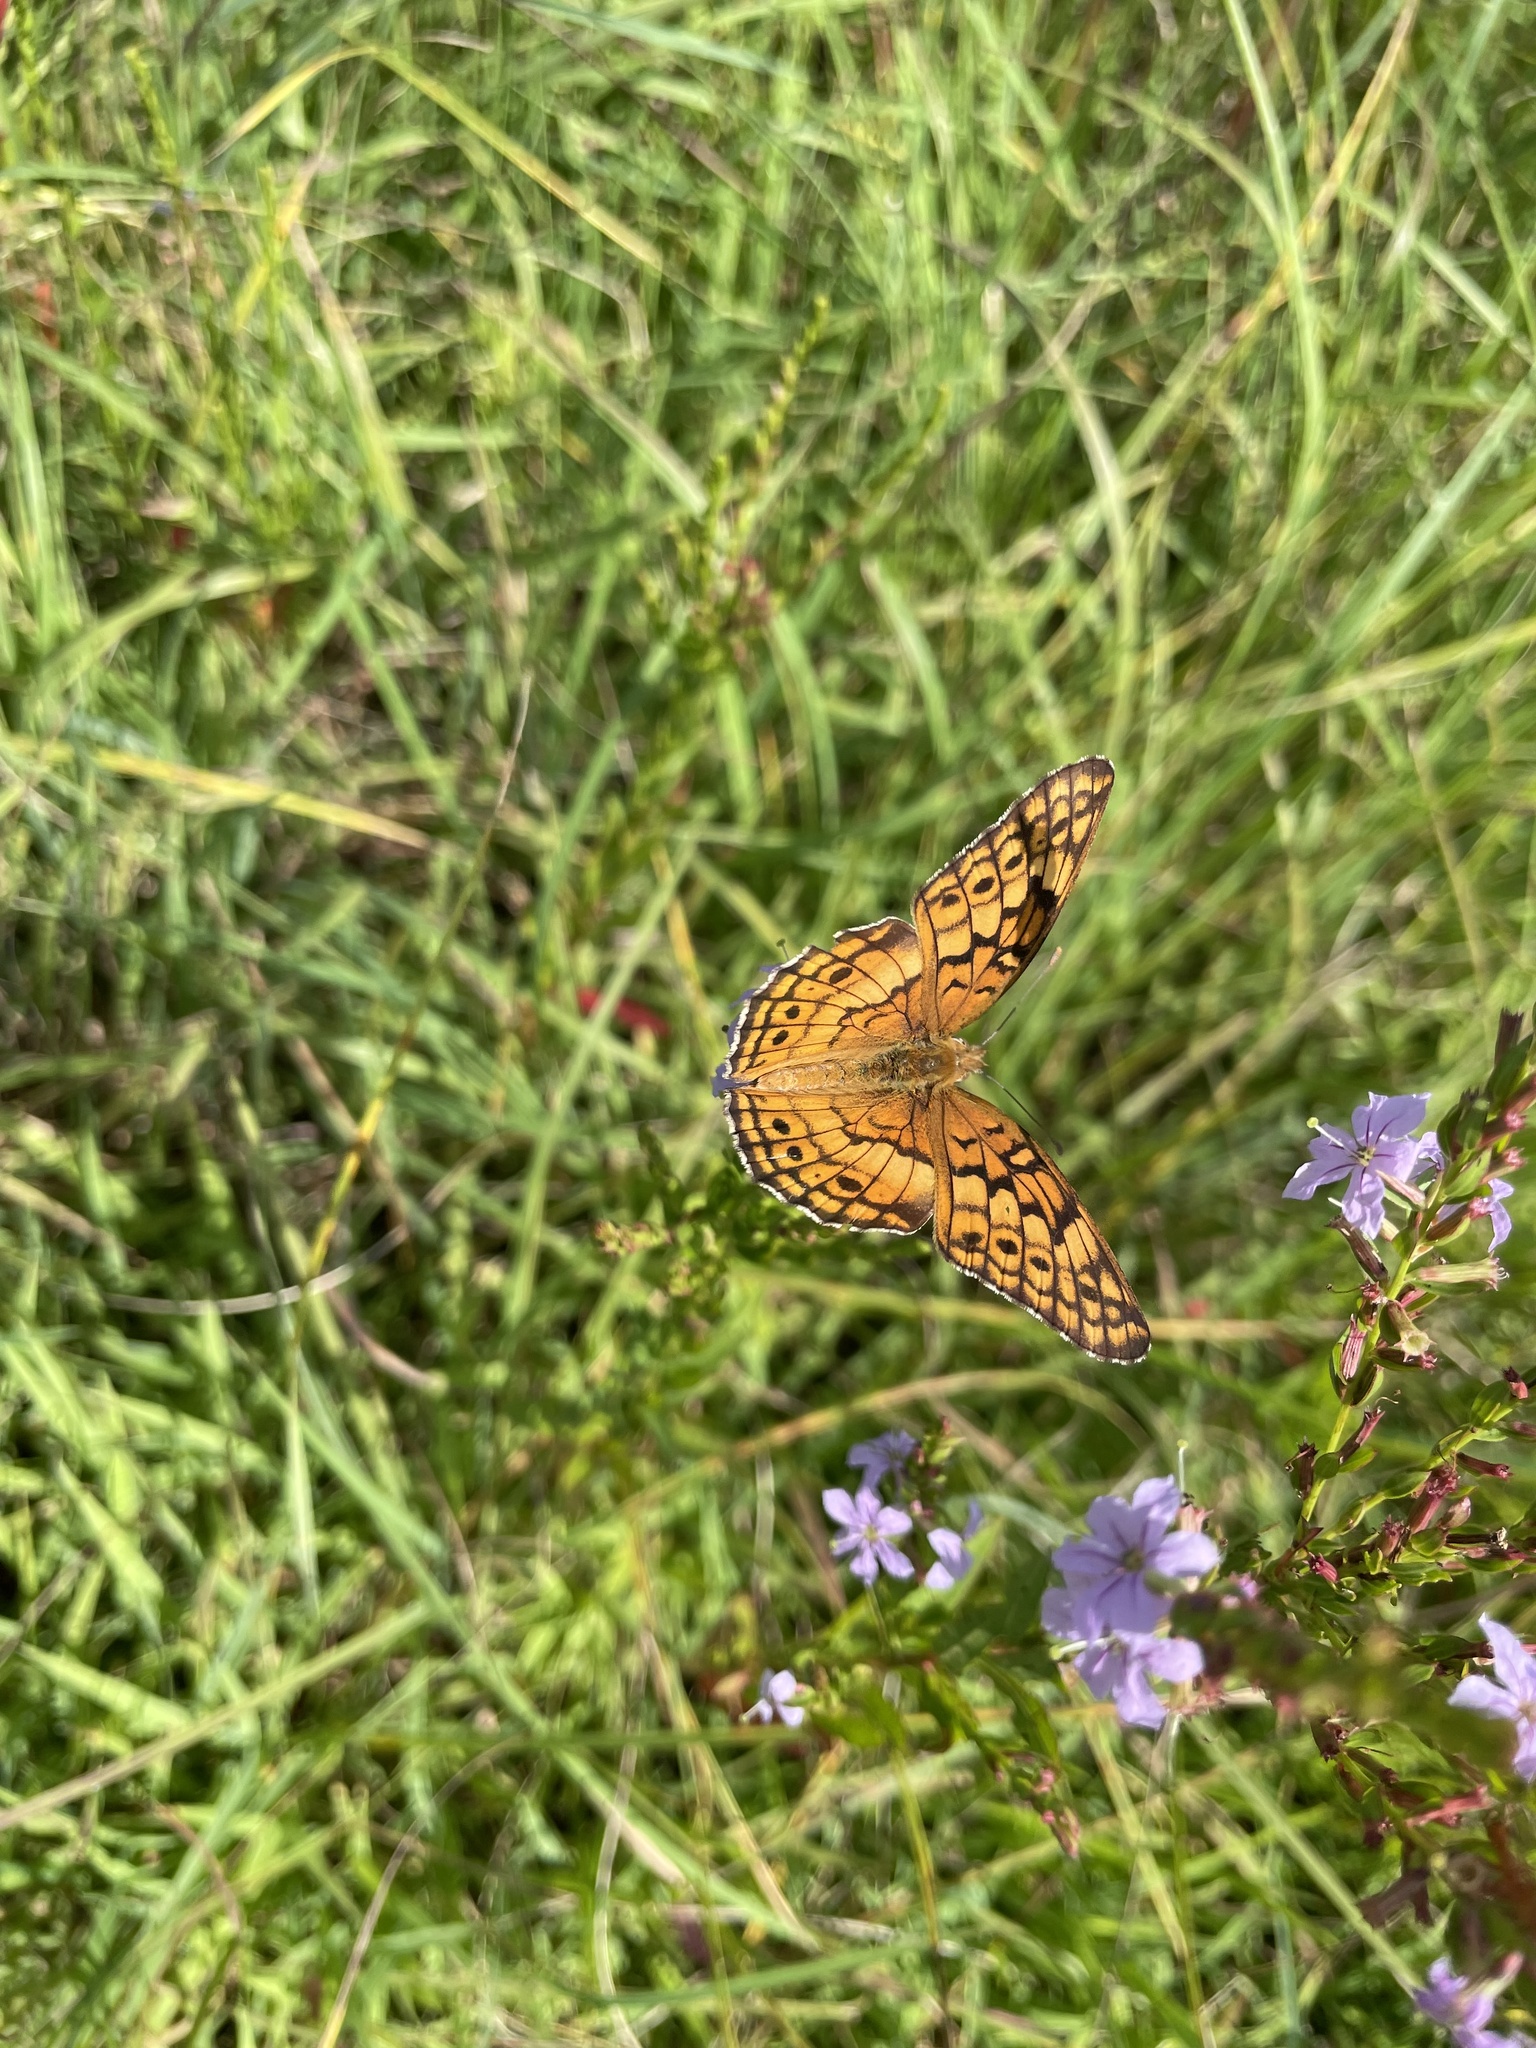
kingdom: Animalia
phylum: Arthropoda
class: Insecta
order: Lepidoptera
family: Nymphalidae
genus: Euptoieta
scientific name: Euptoieta claudia
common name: Variegated fritillary
